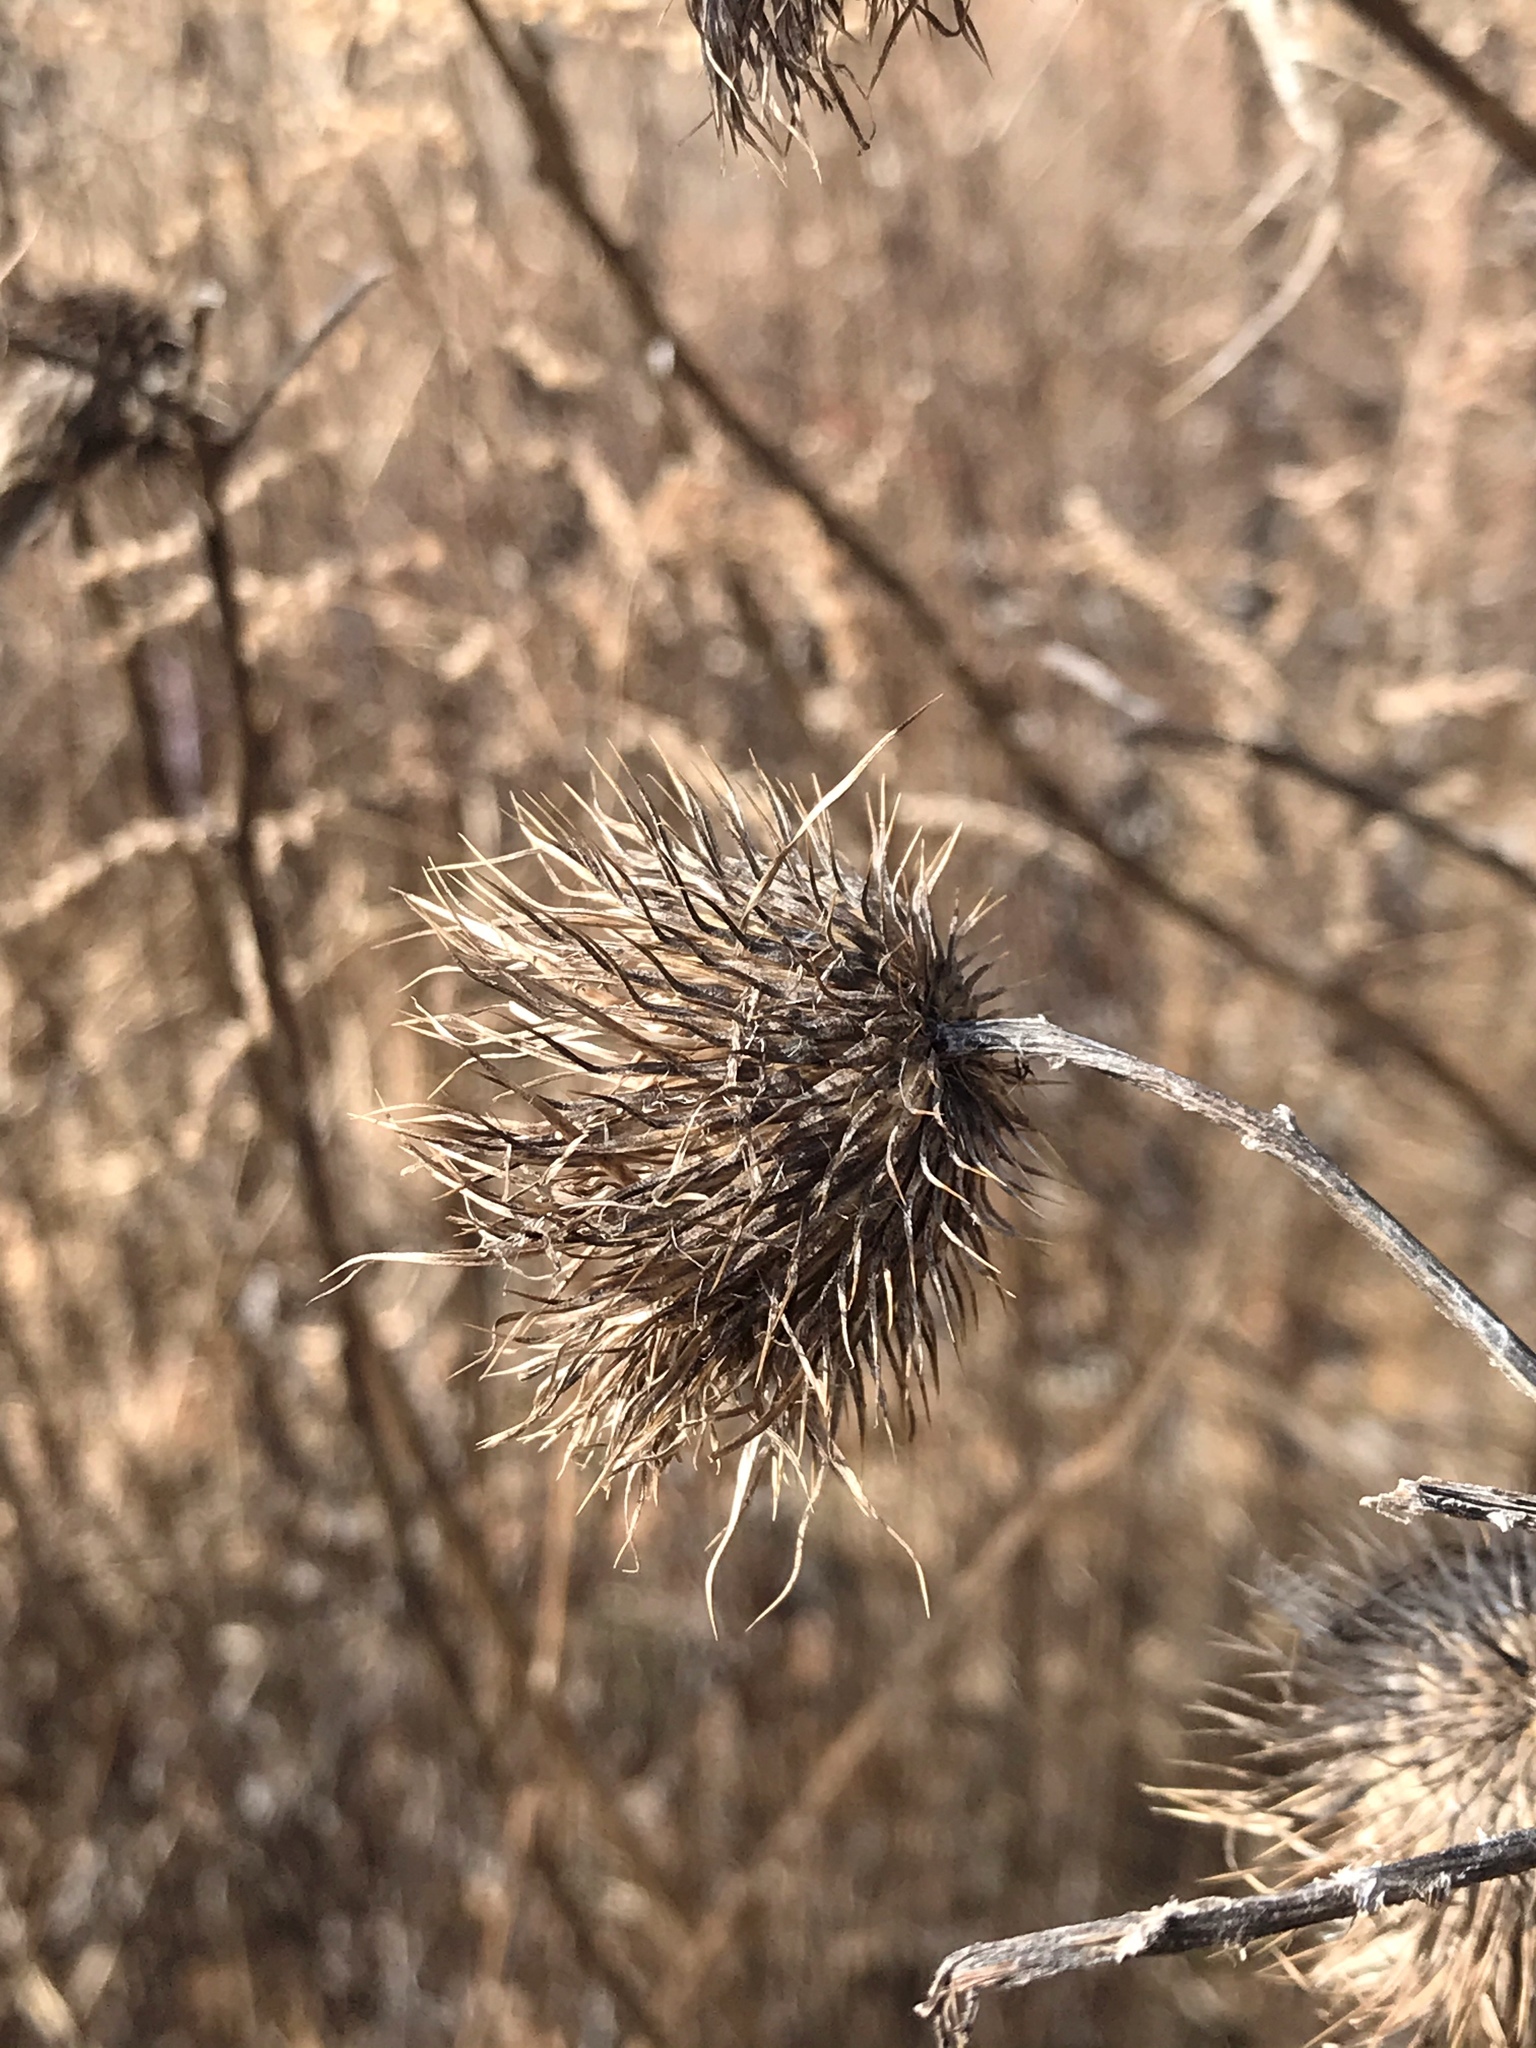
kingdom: Plantae
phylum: Tracheophyta
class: Magnoliopsida
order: Asterales
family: Asteraceae
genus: Cirsium
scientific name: Cirsium vulgare
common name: Bull thistle
